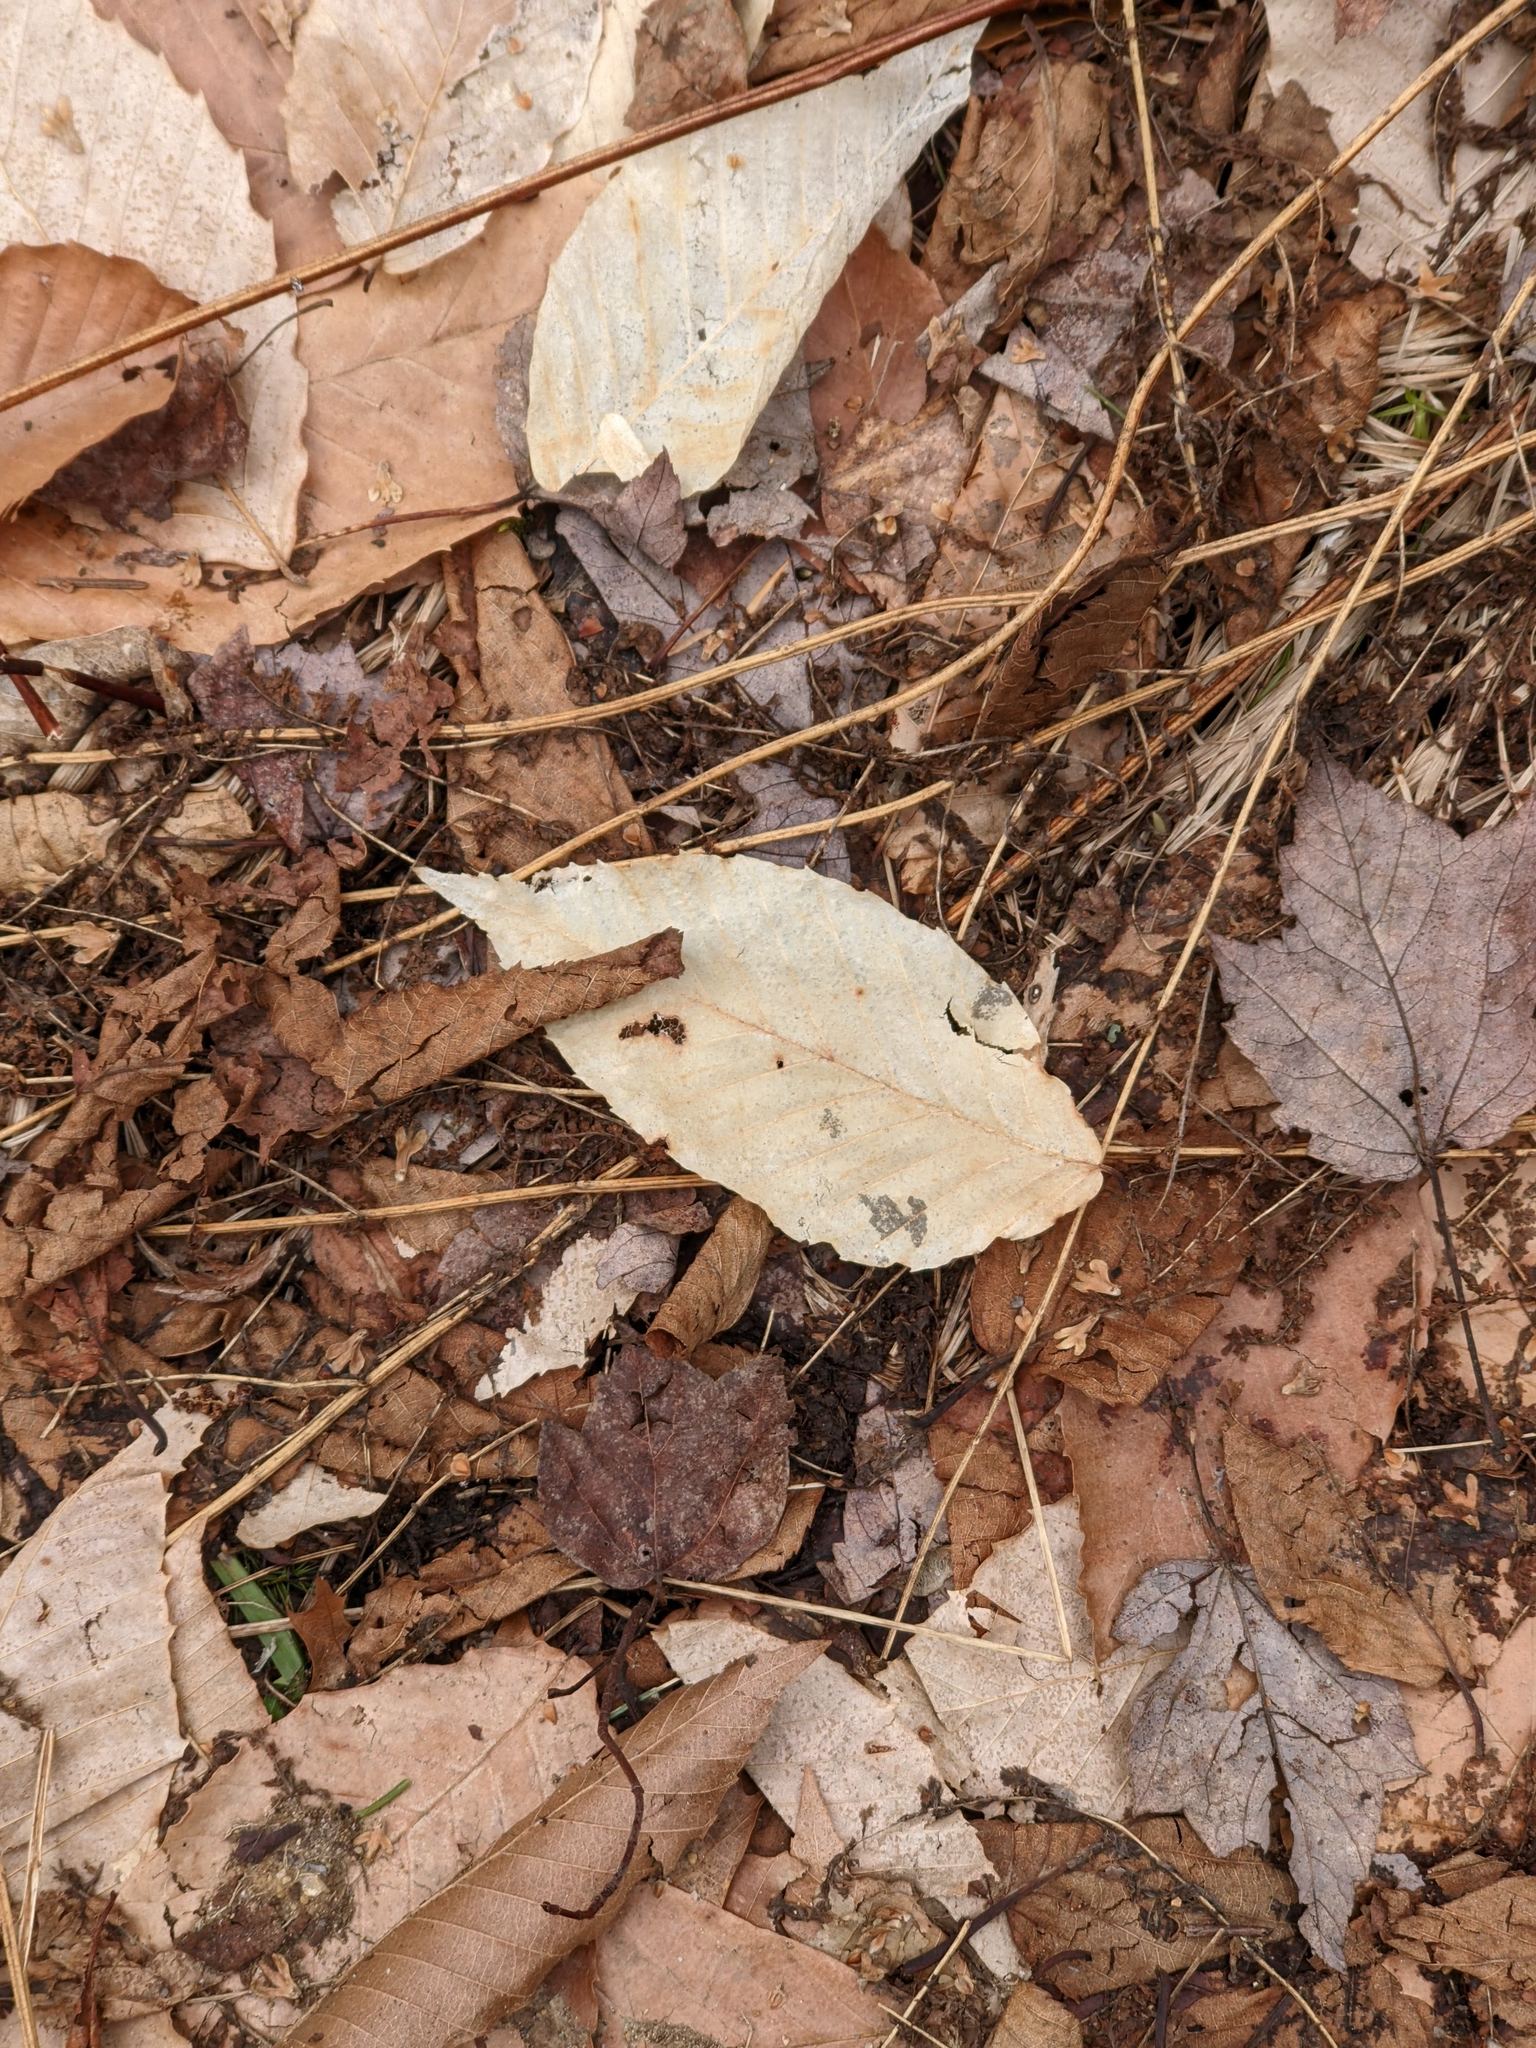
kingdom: Plantae
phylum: Tracheophyta
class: Magnoliopsida
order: Fagales
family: Fagaceae
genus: Fagus
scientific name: Fagus grandifolia
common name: American beech
